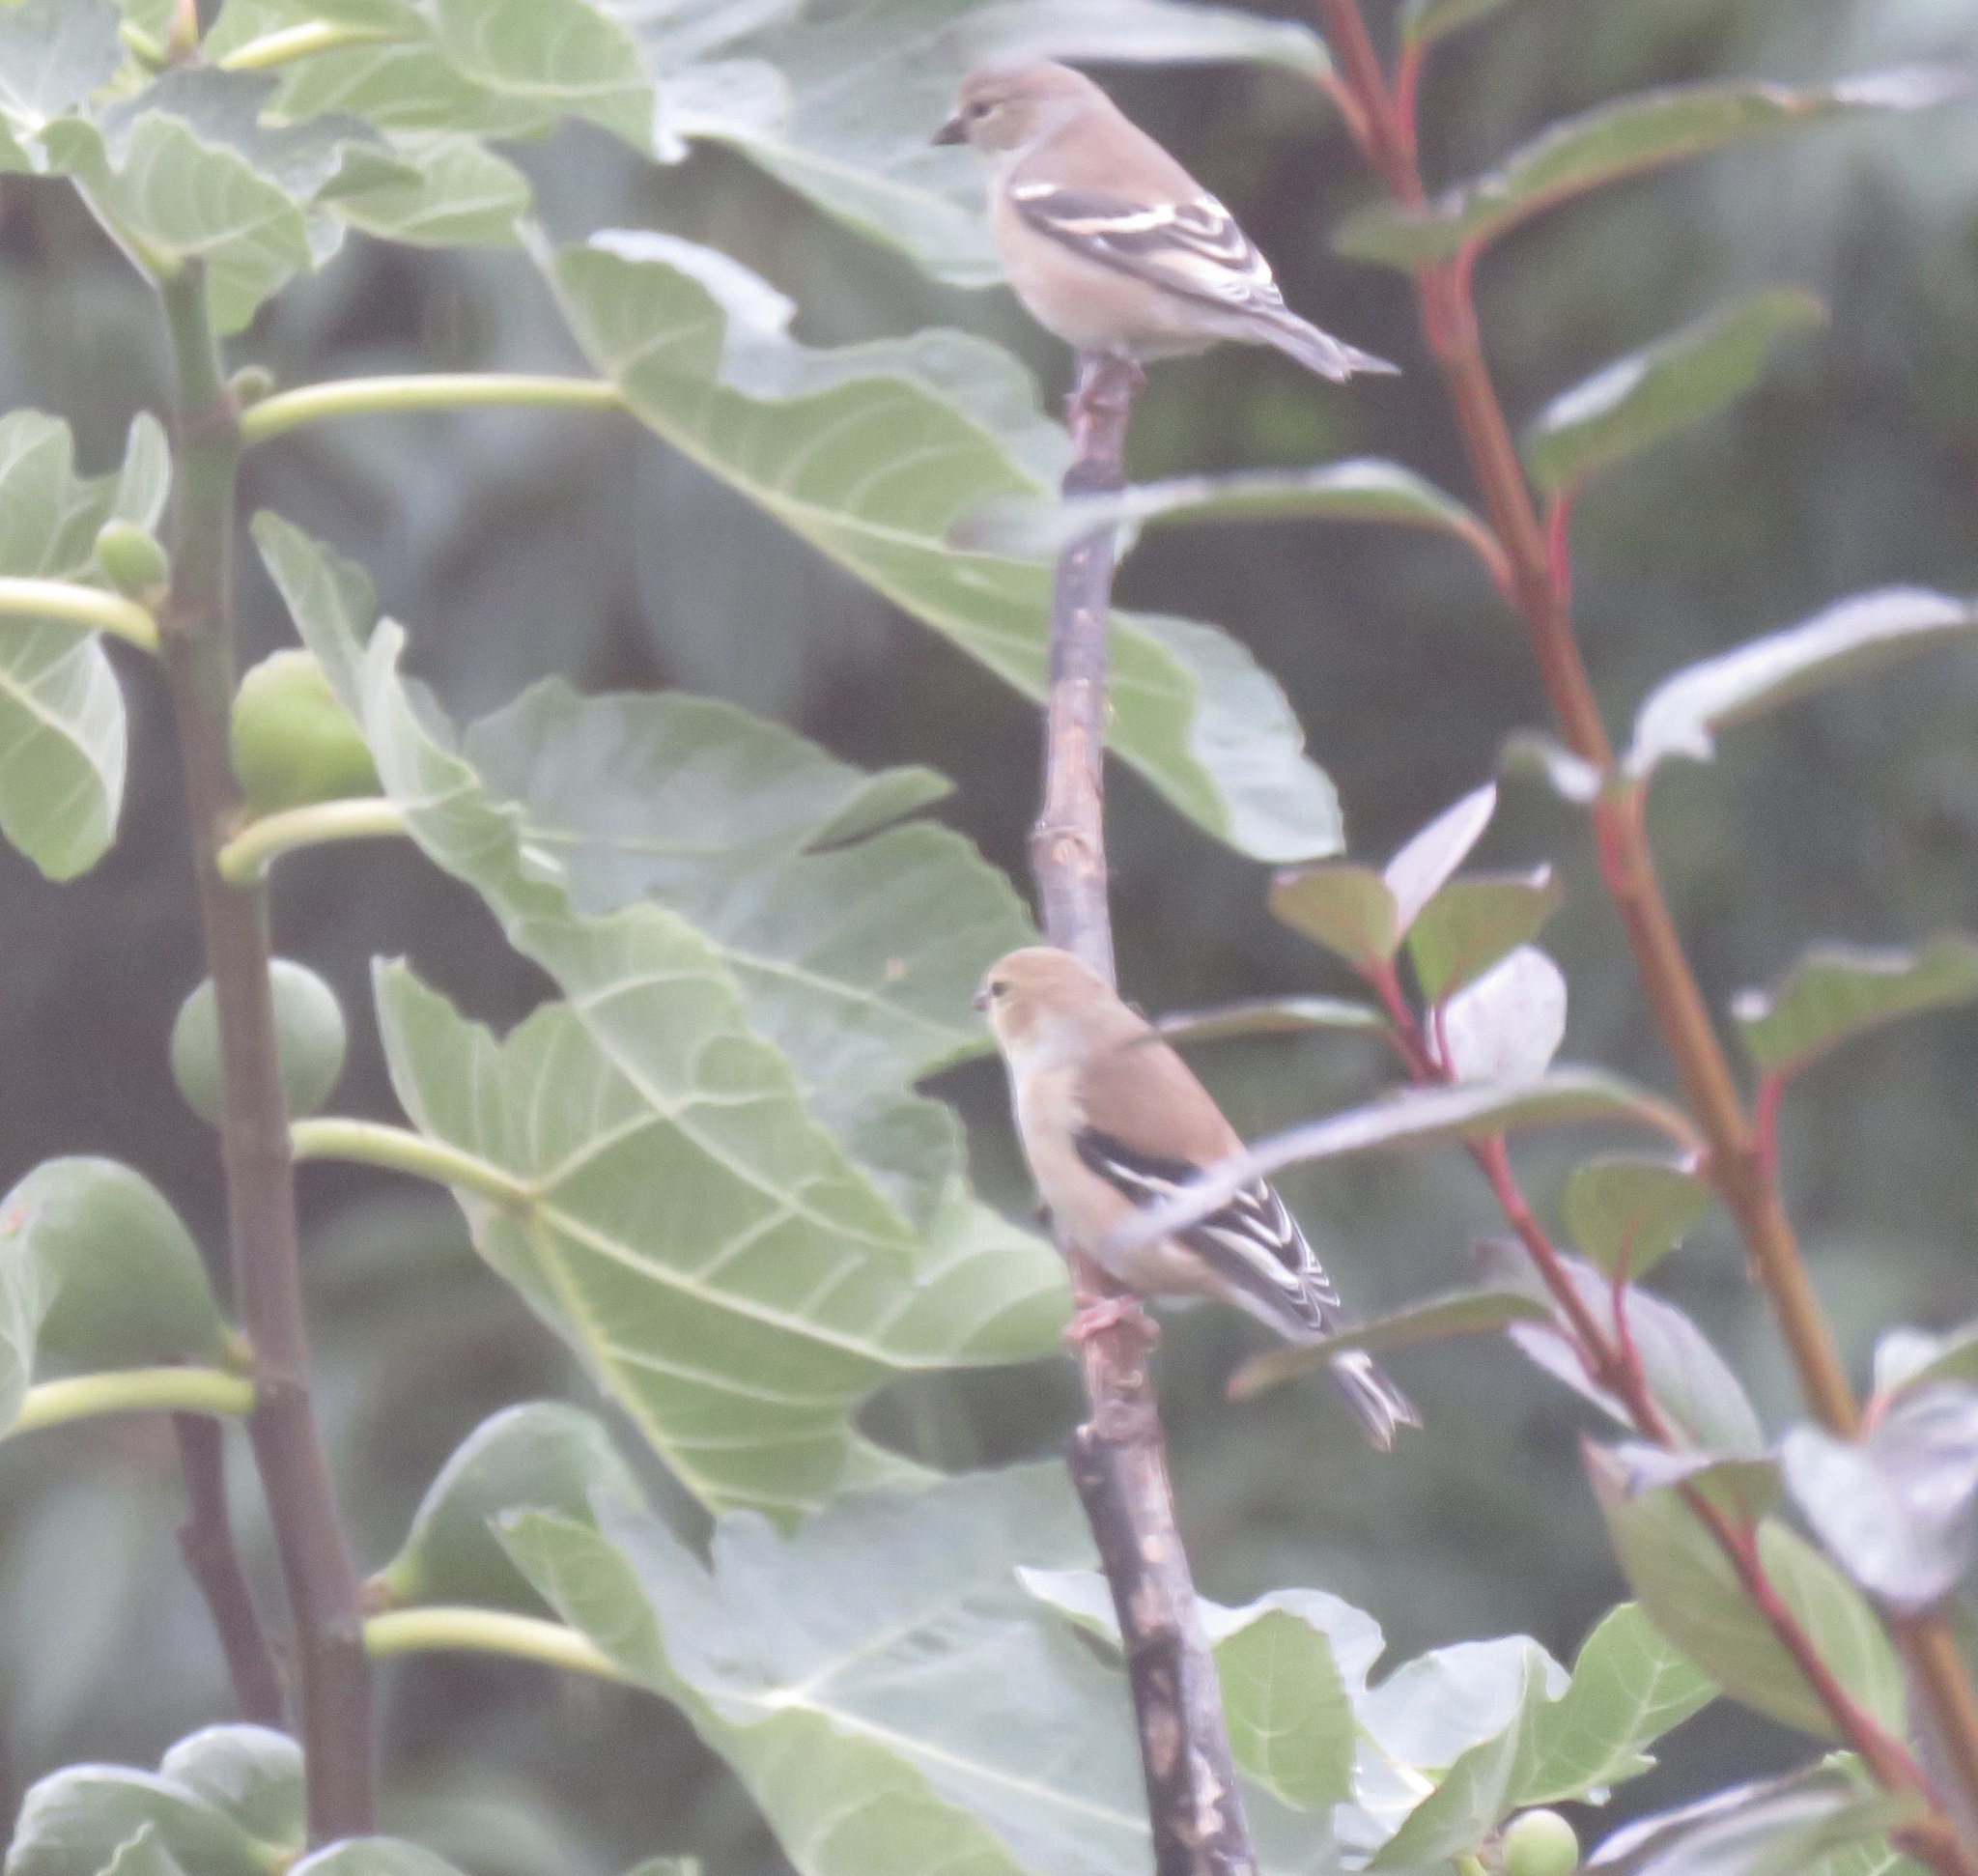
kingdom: Animalia
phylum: Chordata
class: Aves
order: Passeriformes
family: Fringillidae
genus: Spinus
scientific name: Spinus tristis
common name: American goldfinch
